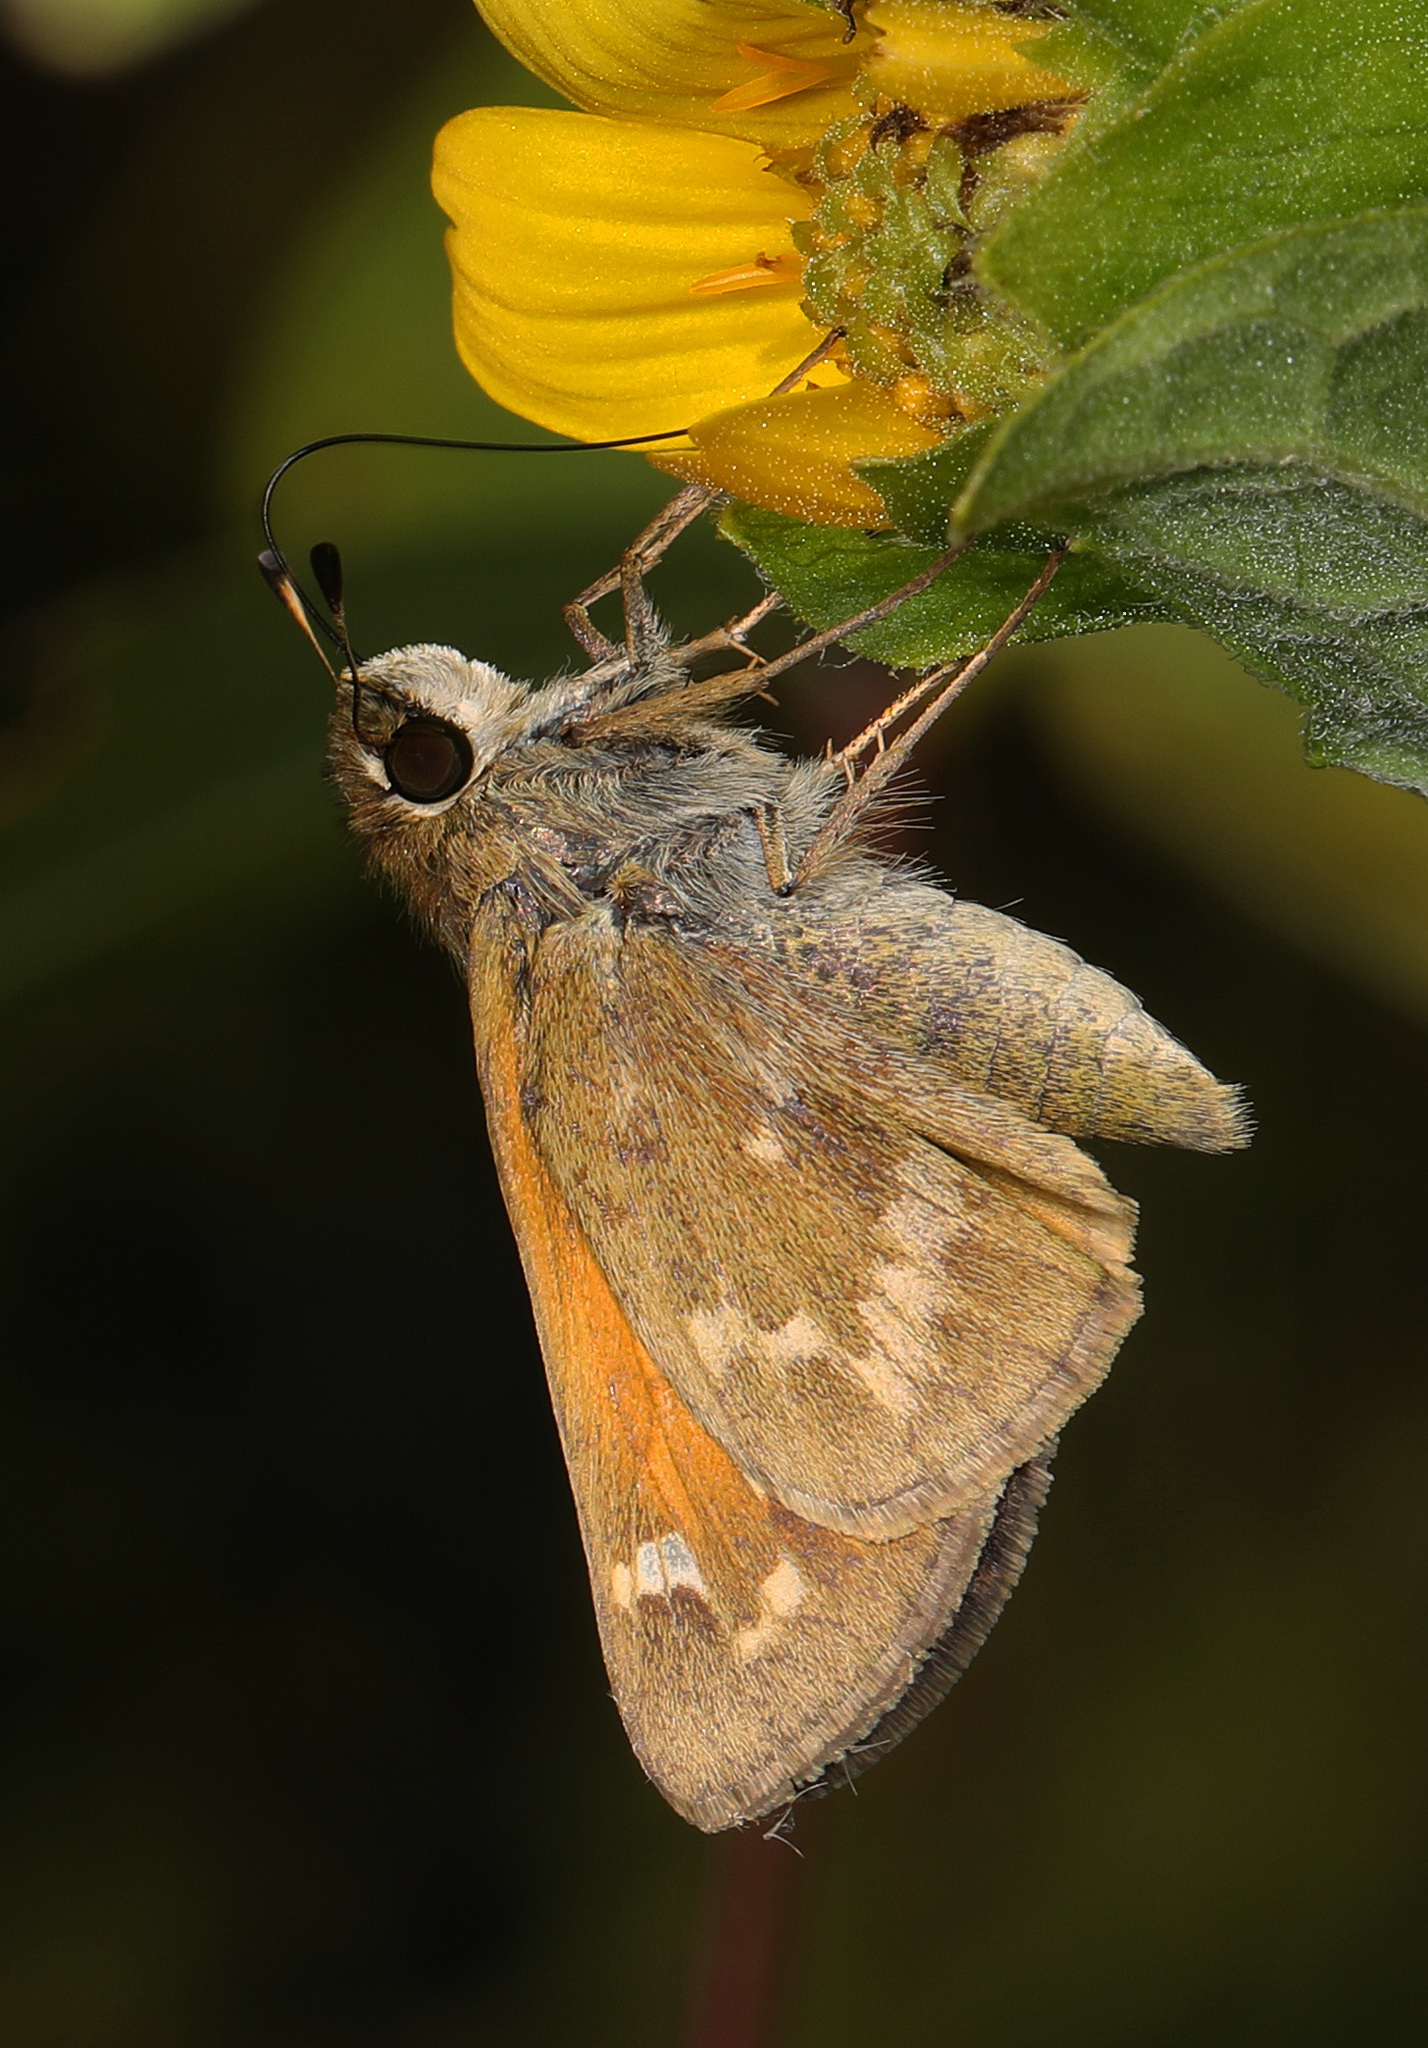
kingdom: Animalia
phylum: Arthropoda
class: Insecta
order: Lepidoptera
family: Hesperiidae
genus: Atalopedes
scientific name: Atalopedes
